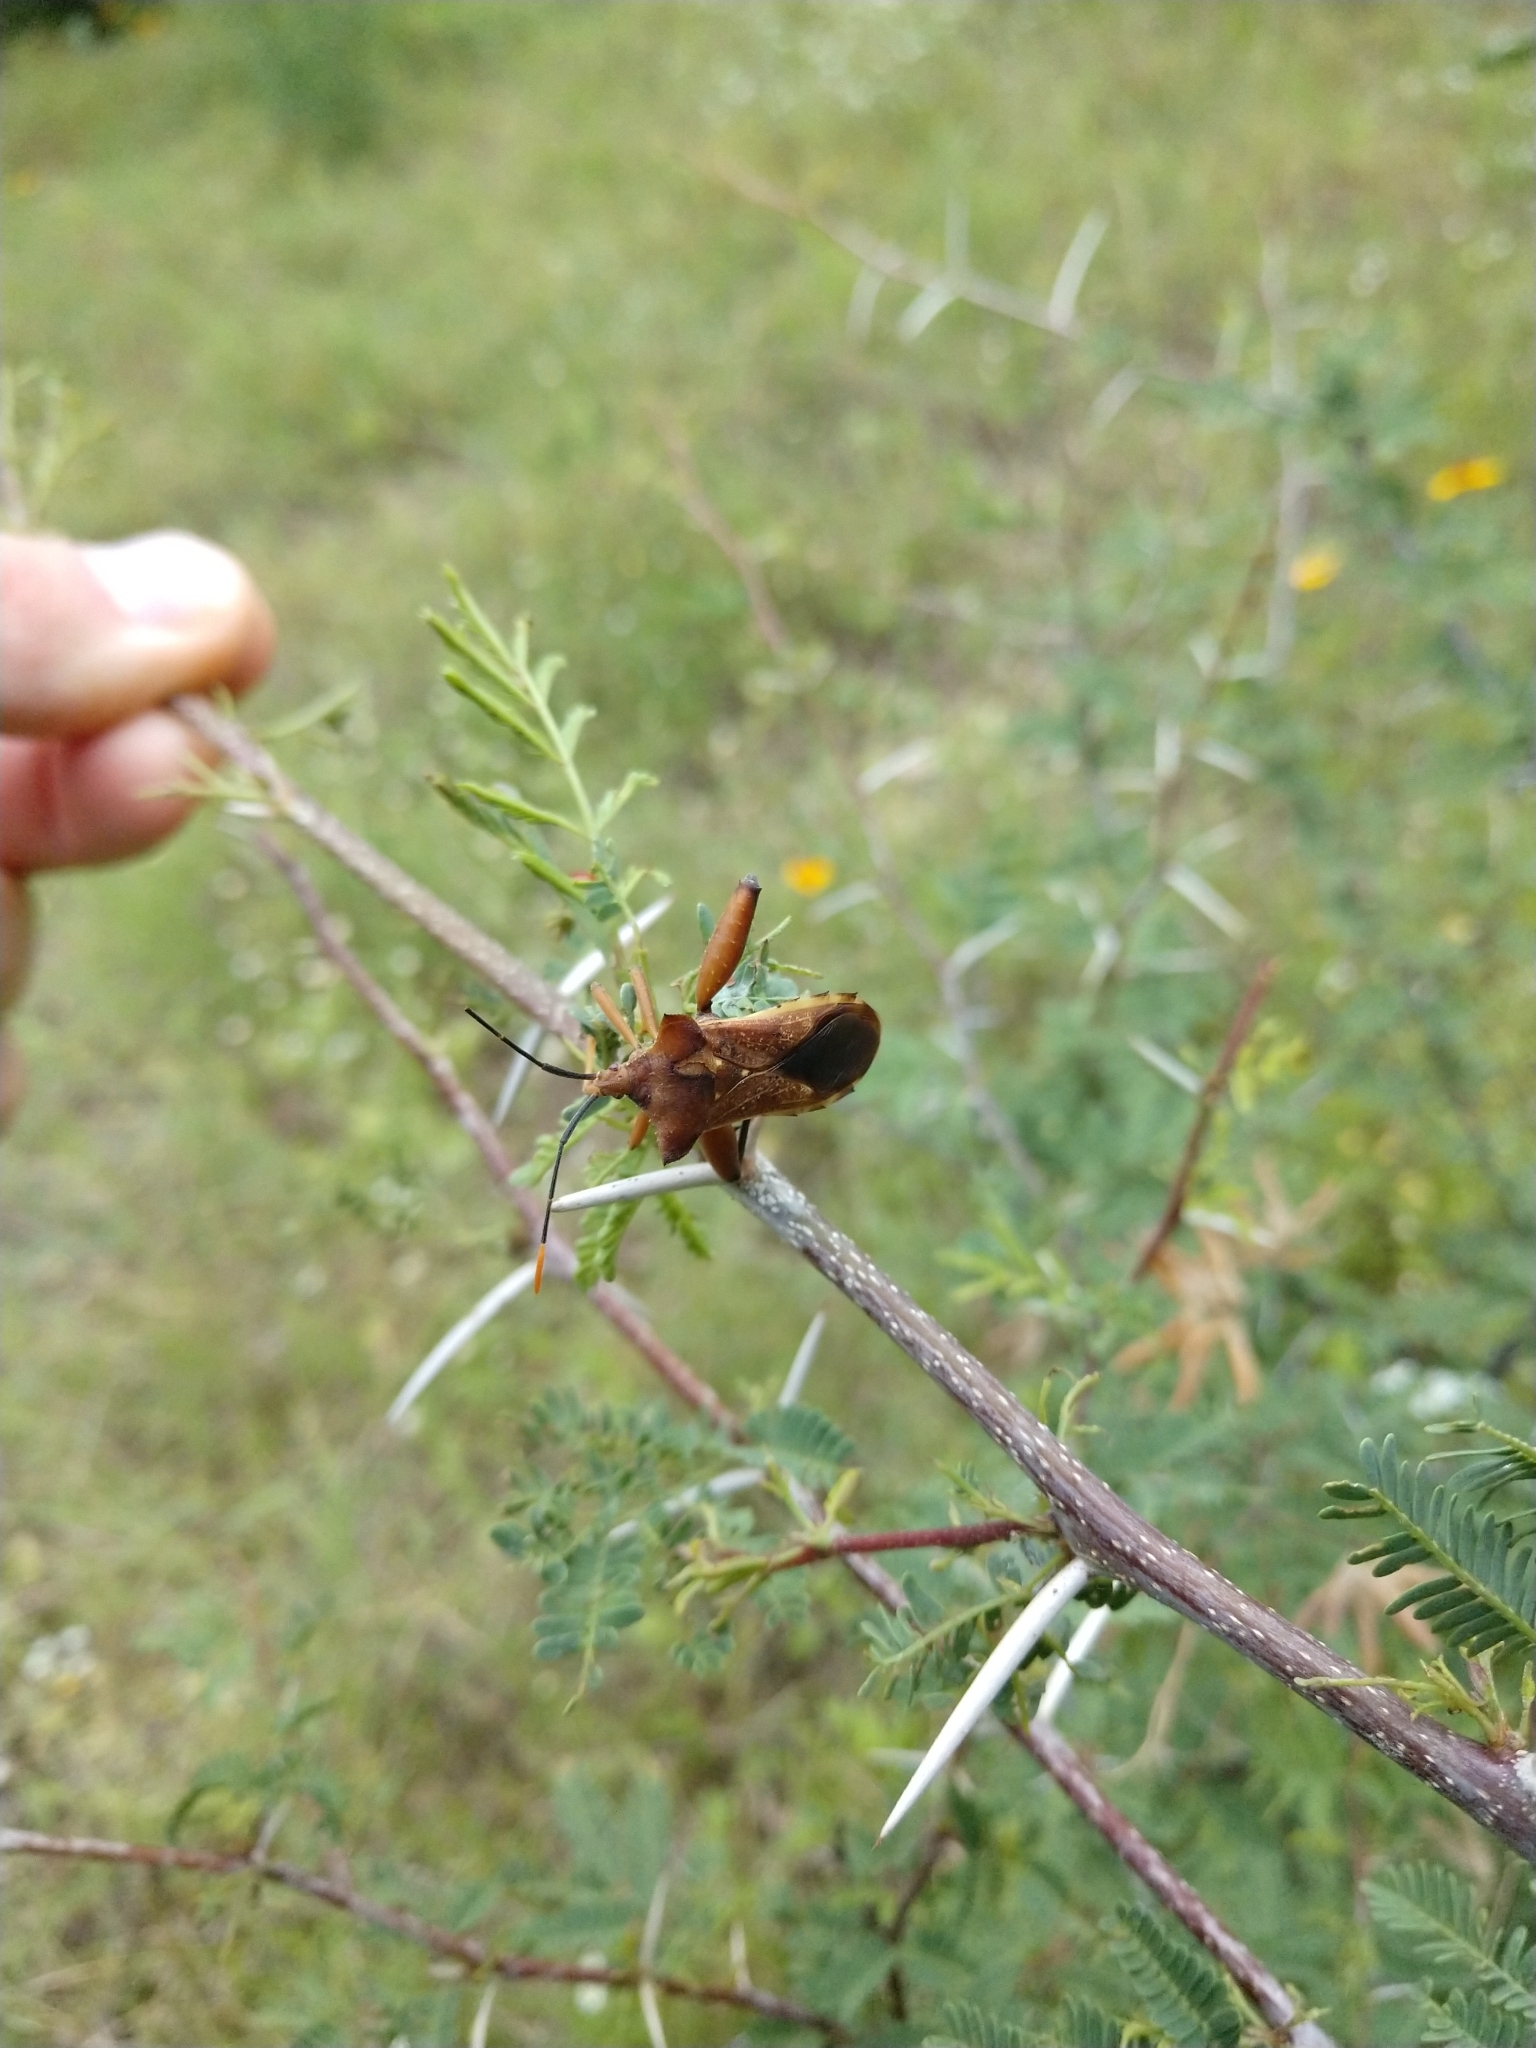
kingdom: Animalia
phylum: Arthropoda
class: Insecta
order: Hemiptera
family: Coreidae
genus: Mozena
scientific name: Mozena lunata
